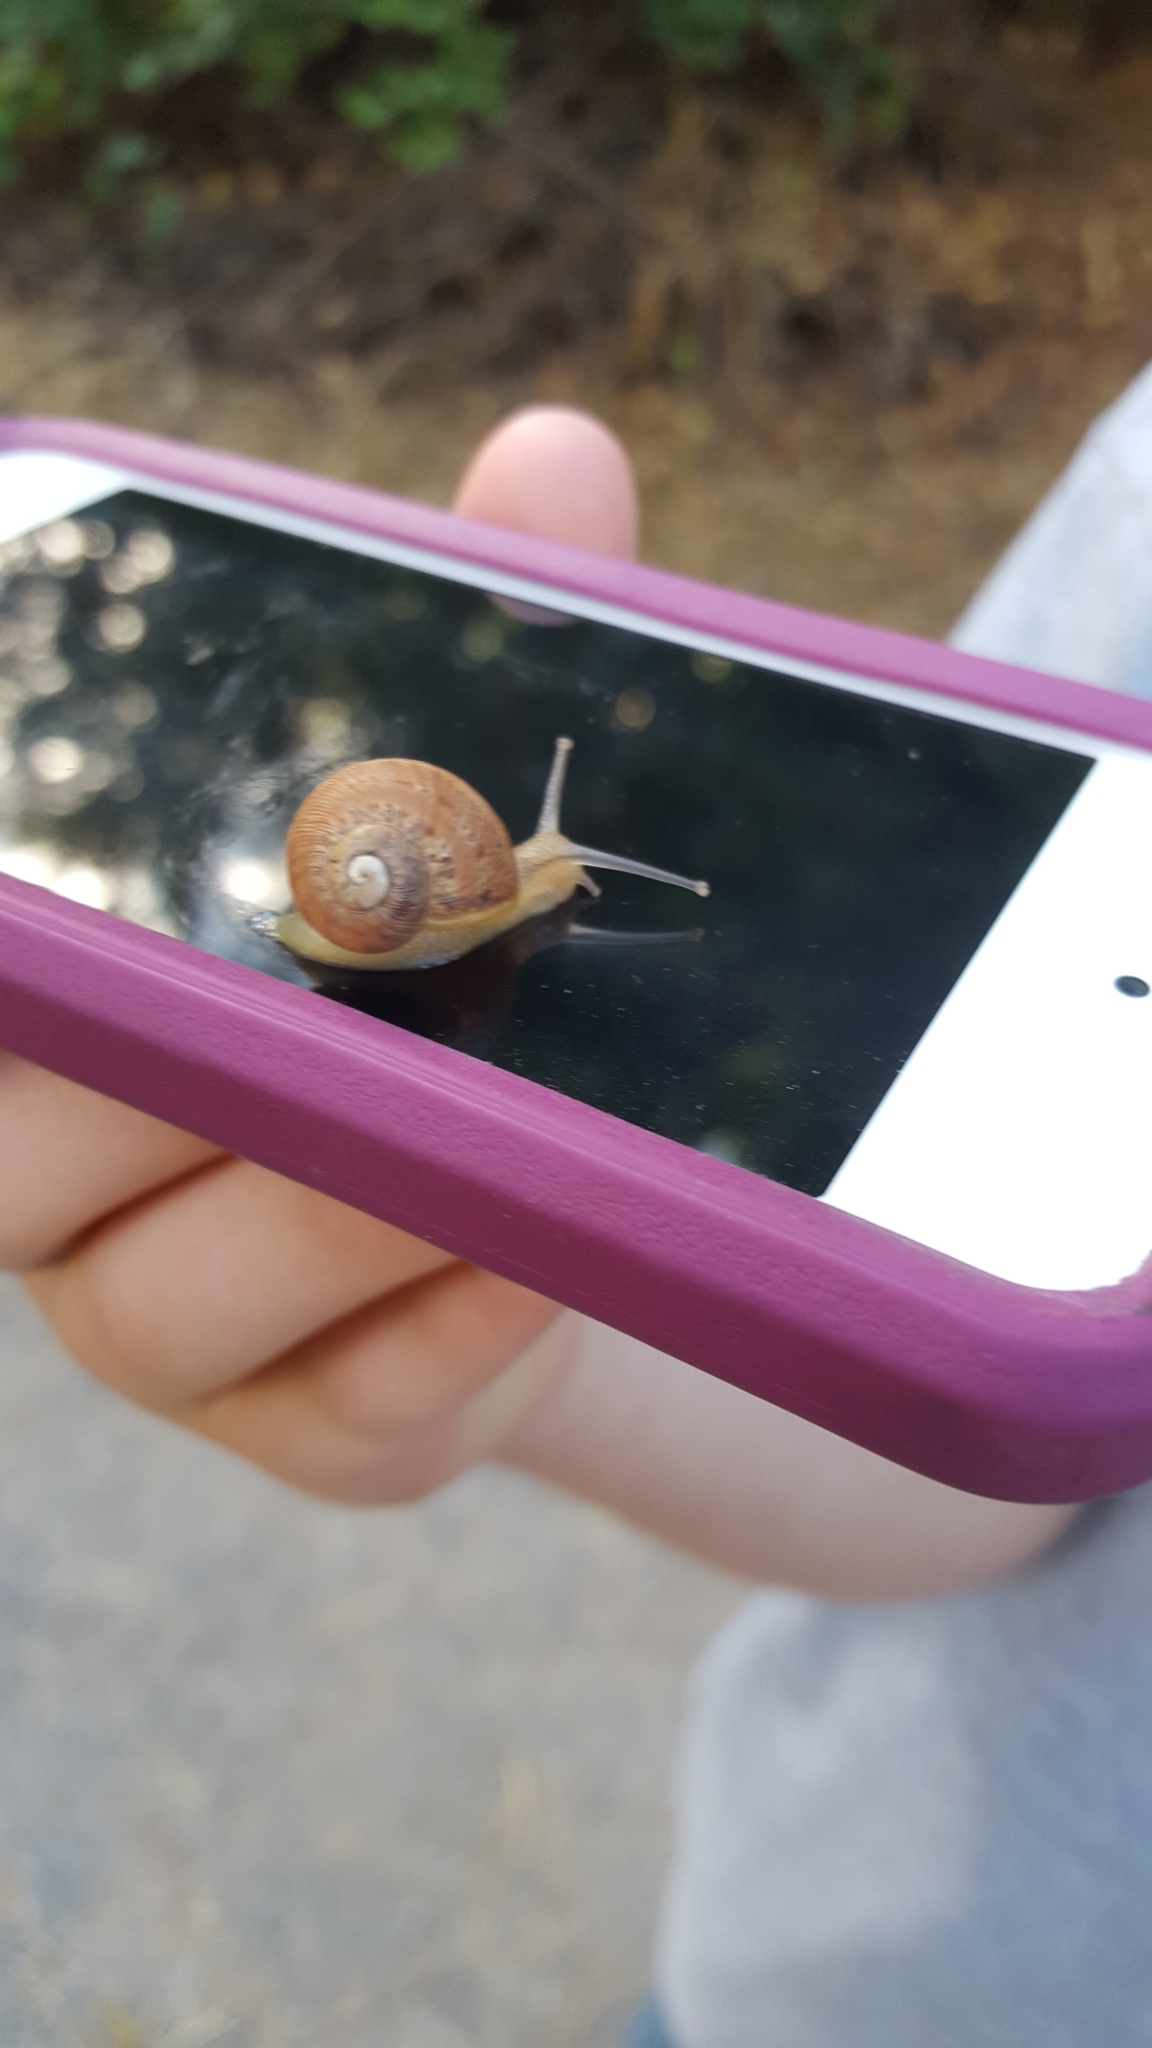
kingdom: Animalia
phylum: Mollusca
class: Gastropoda
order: Stylommatophora
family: Helicidae
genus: Cornu
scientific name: Cornu aspersum
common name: Brown garden snail
